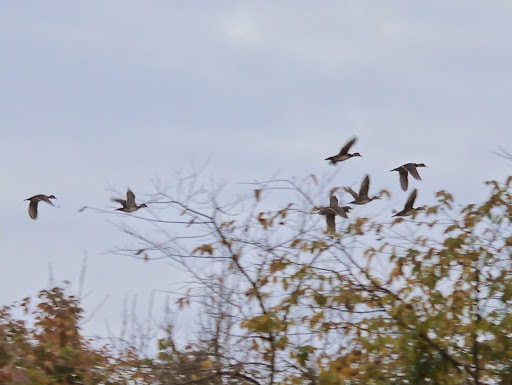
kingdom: Animalia
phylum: Chordata
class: Aves
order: Anseriformes
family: Anatidae
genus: Aix
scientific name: Aix sponsa
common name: Wood duck
